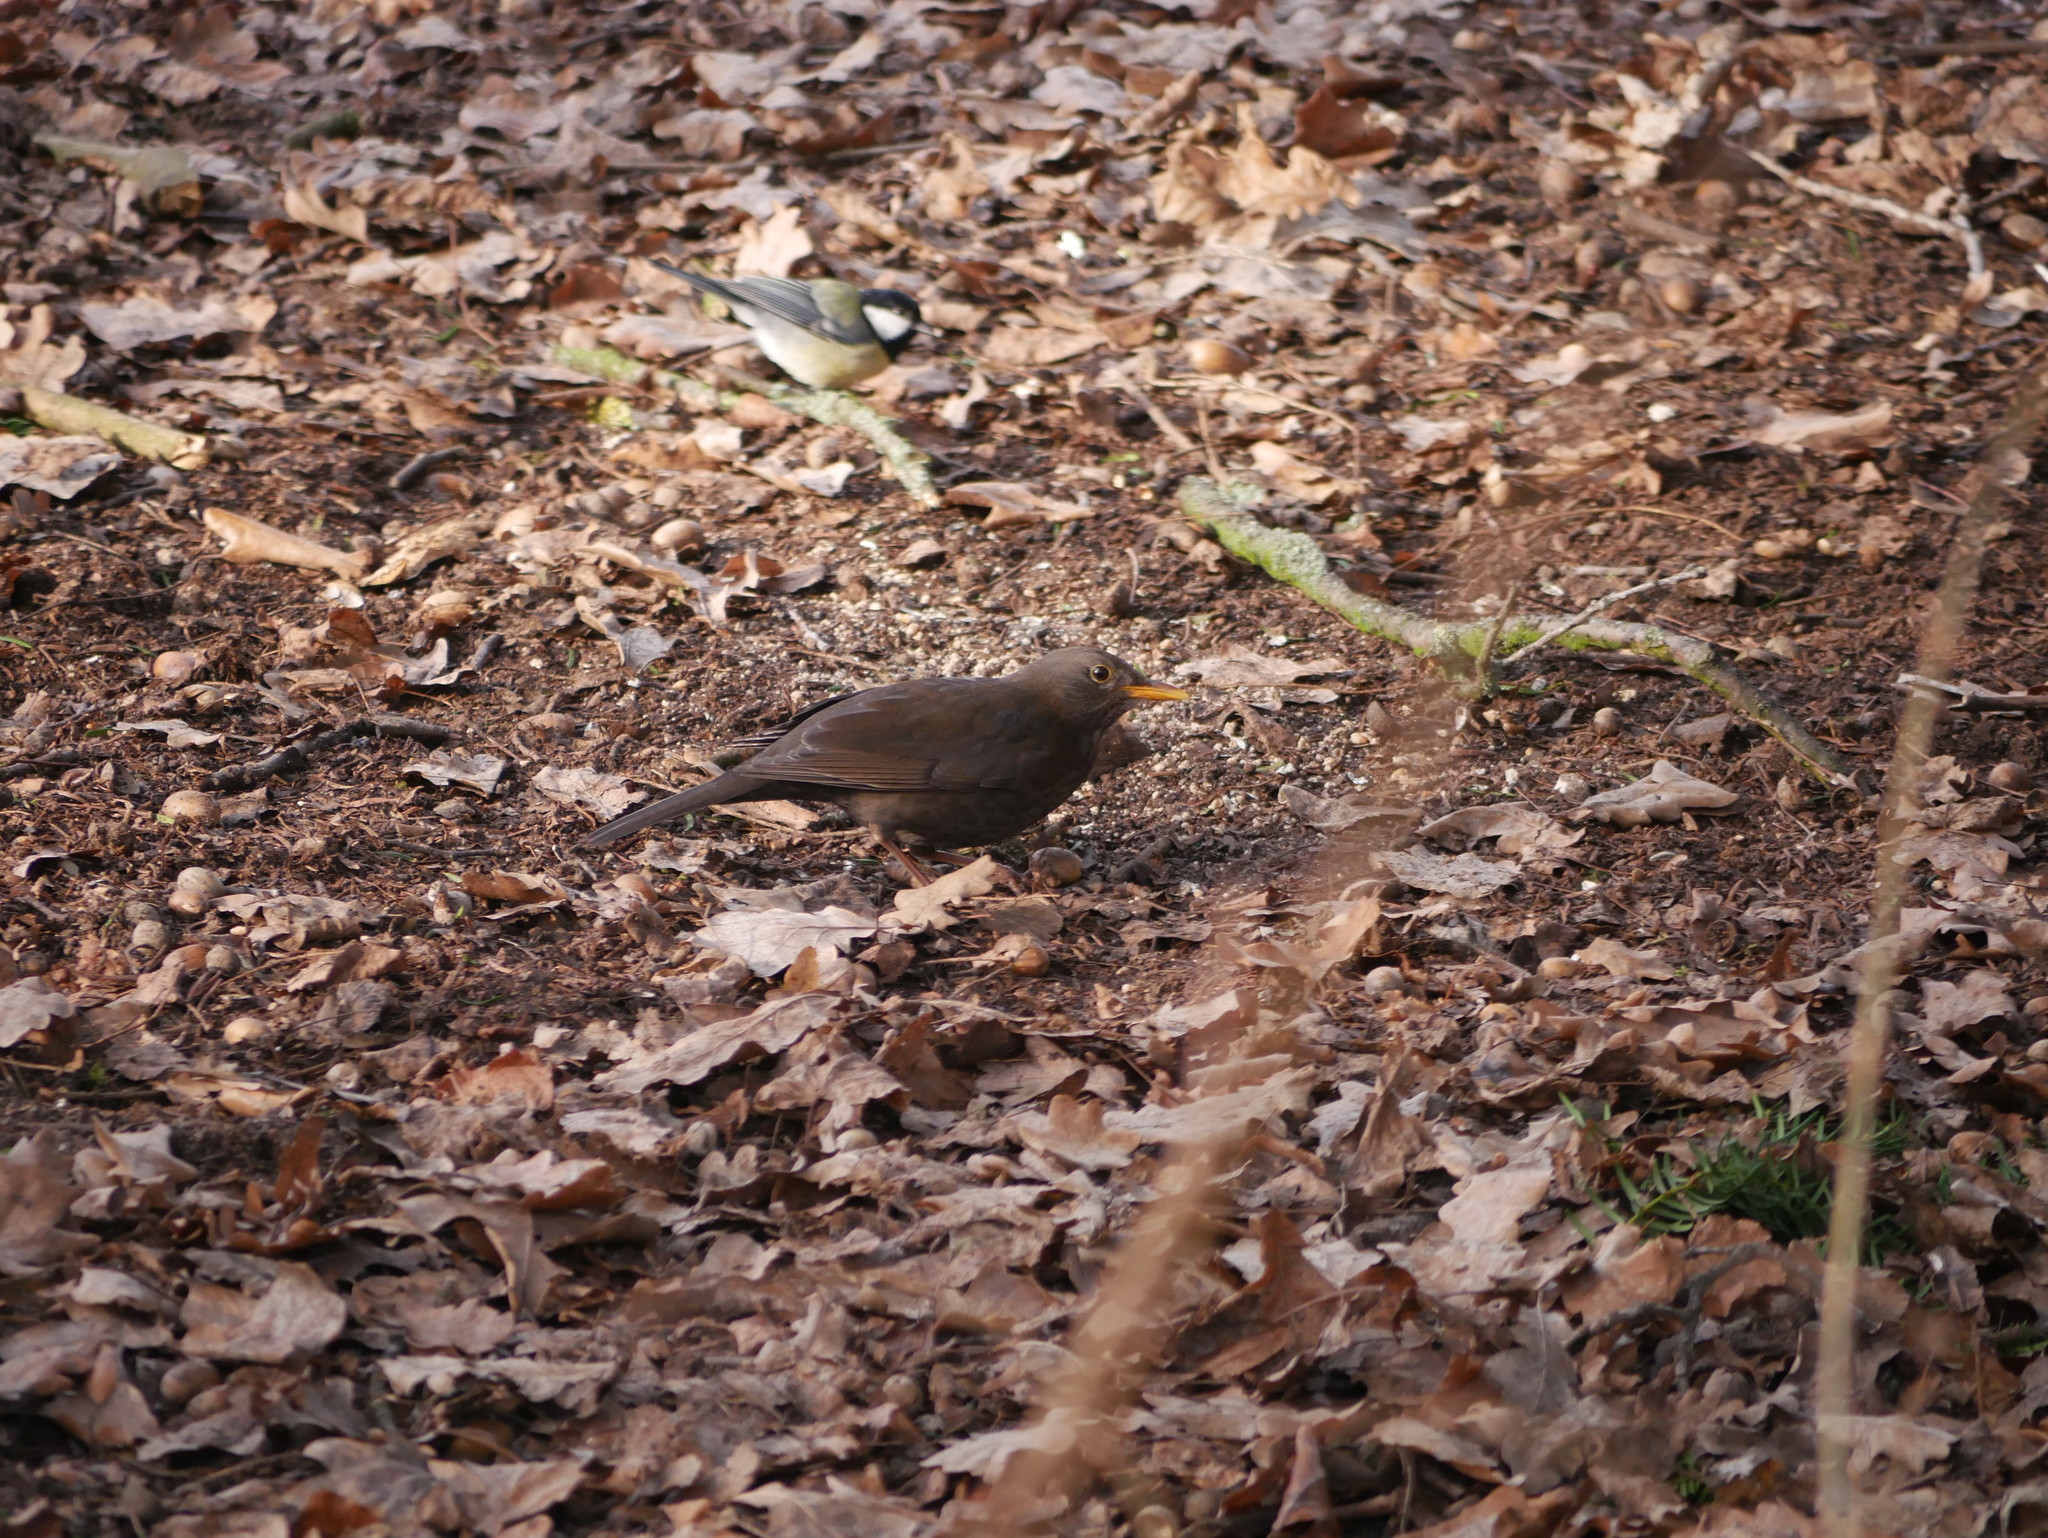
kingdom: Animalia
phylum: Chordata
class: Aves
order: Passeriformes
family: Turdidae
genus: Turdus
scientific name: Turdus merula
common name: Common blackbird
